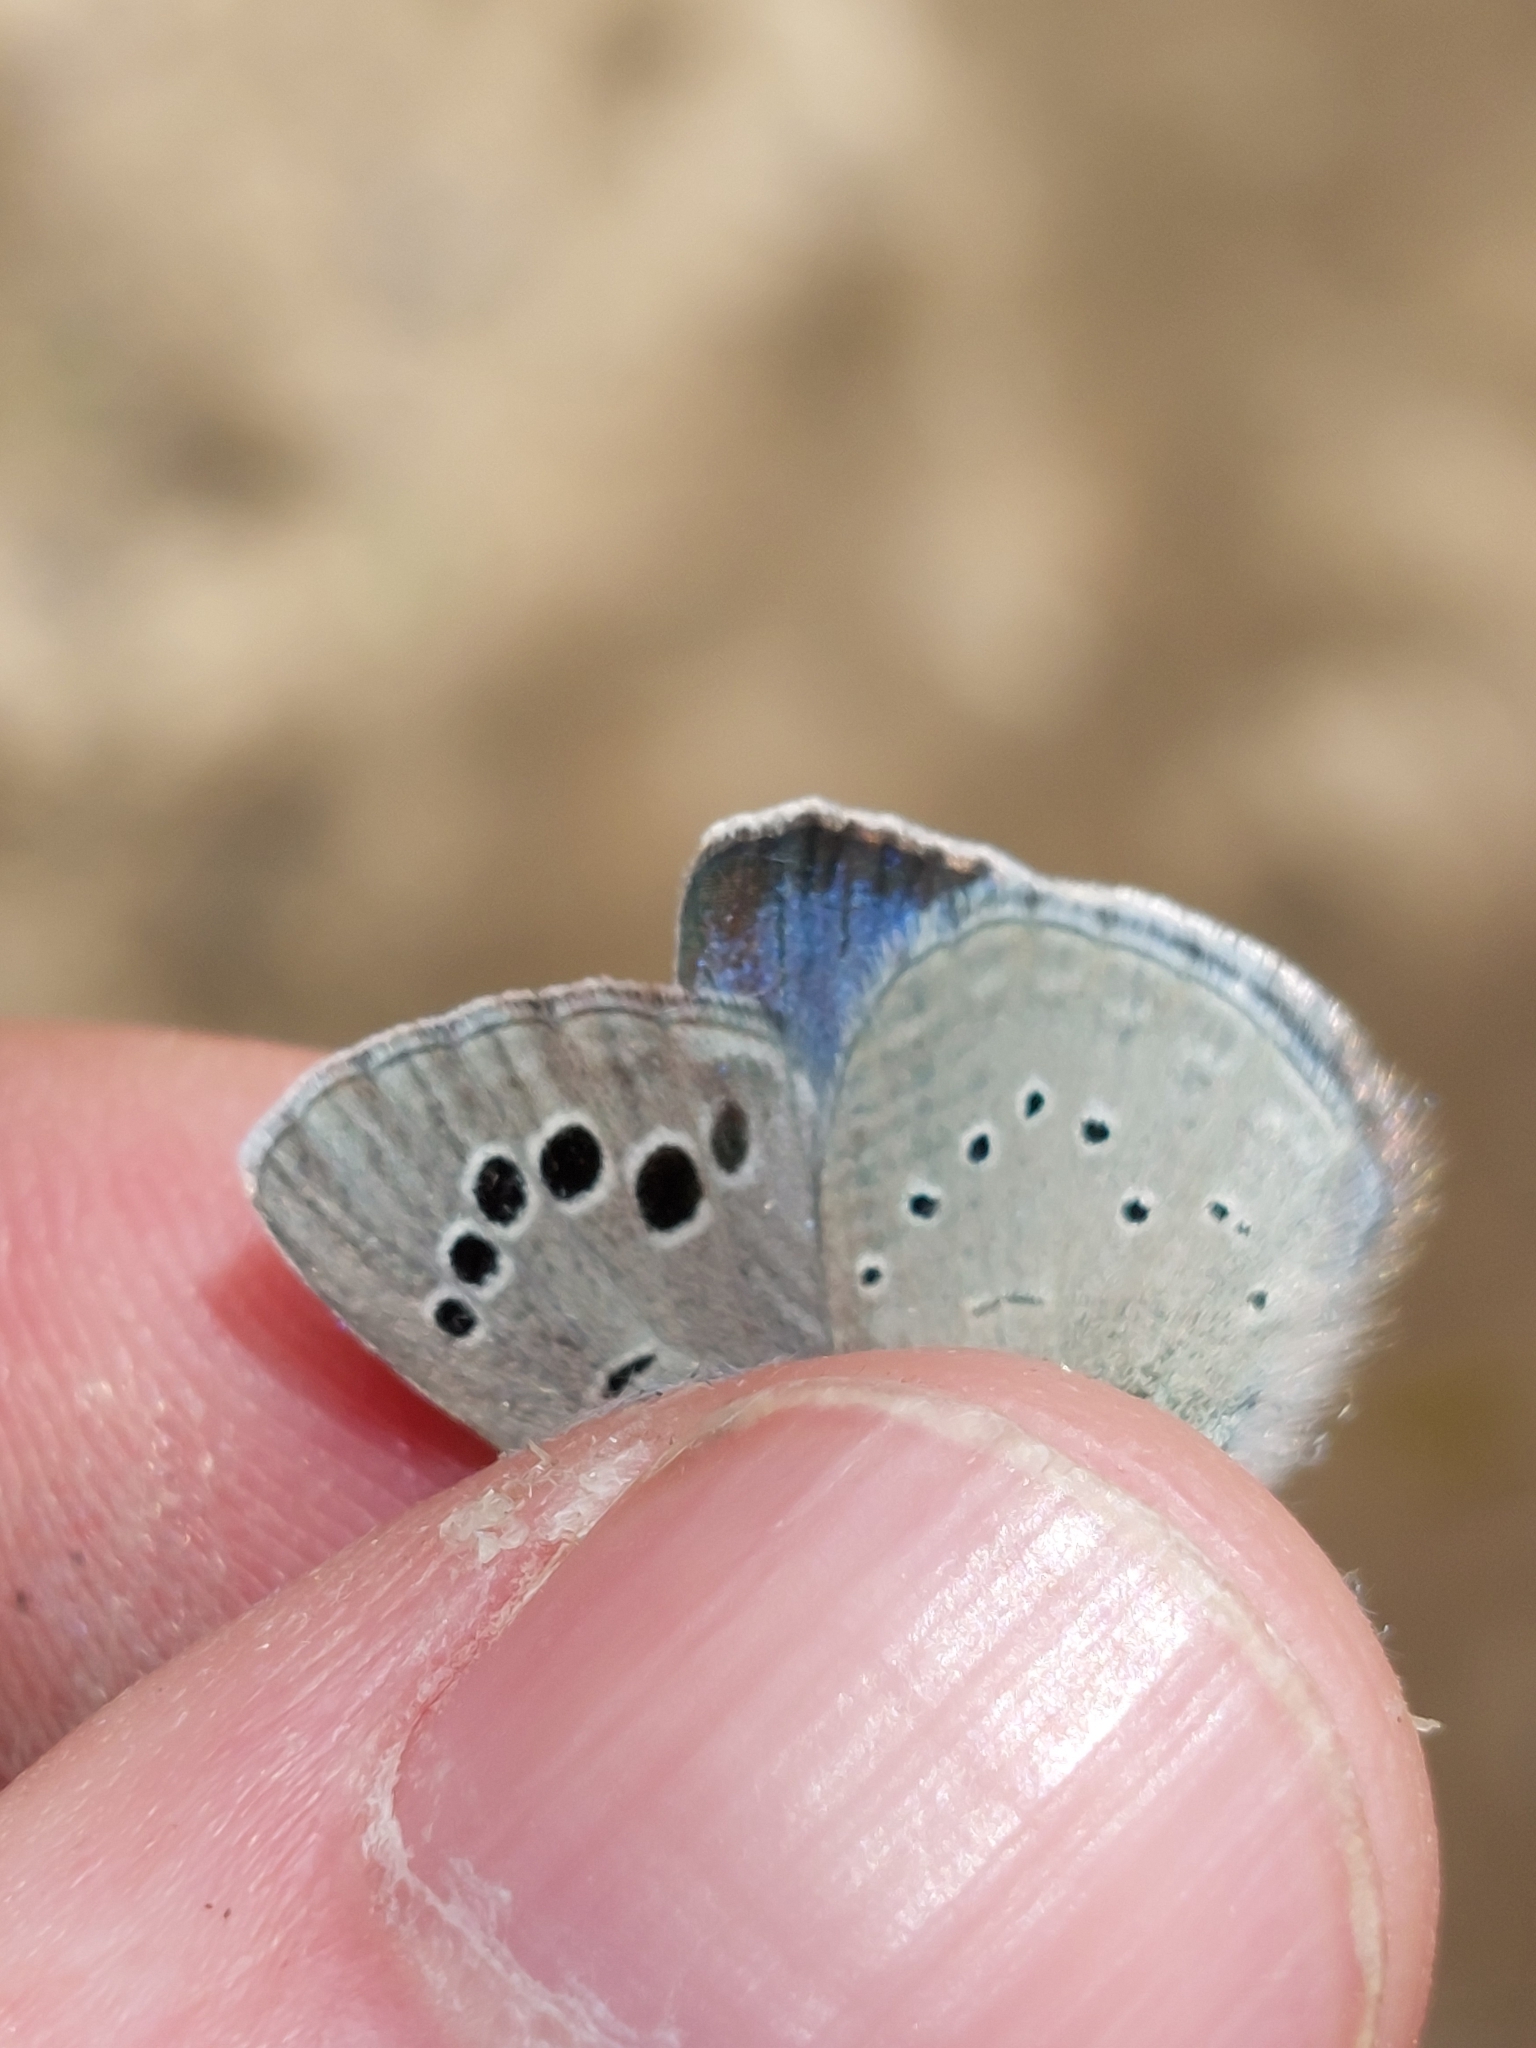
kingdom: Animalia
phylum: Arthropoda
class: Insecta
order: Lepidoptera
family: Lycaenidae
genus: Glaucopsyche
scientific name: Glaucopsyche melanops
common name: Black-eyed blue
